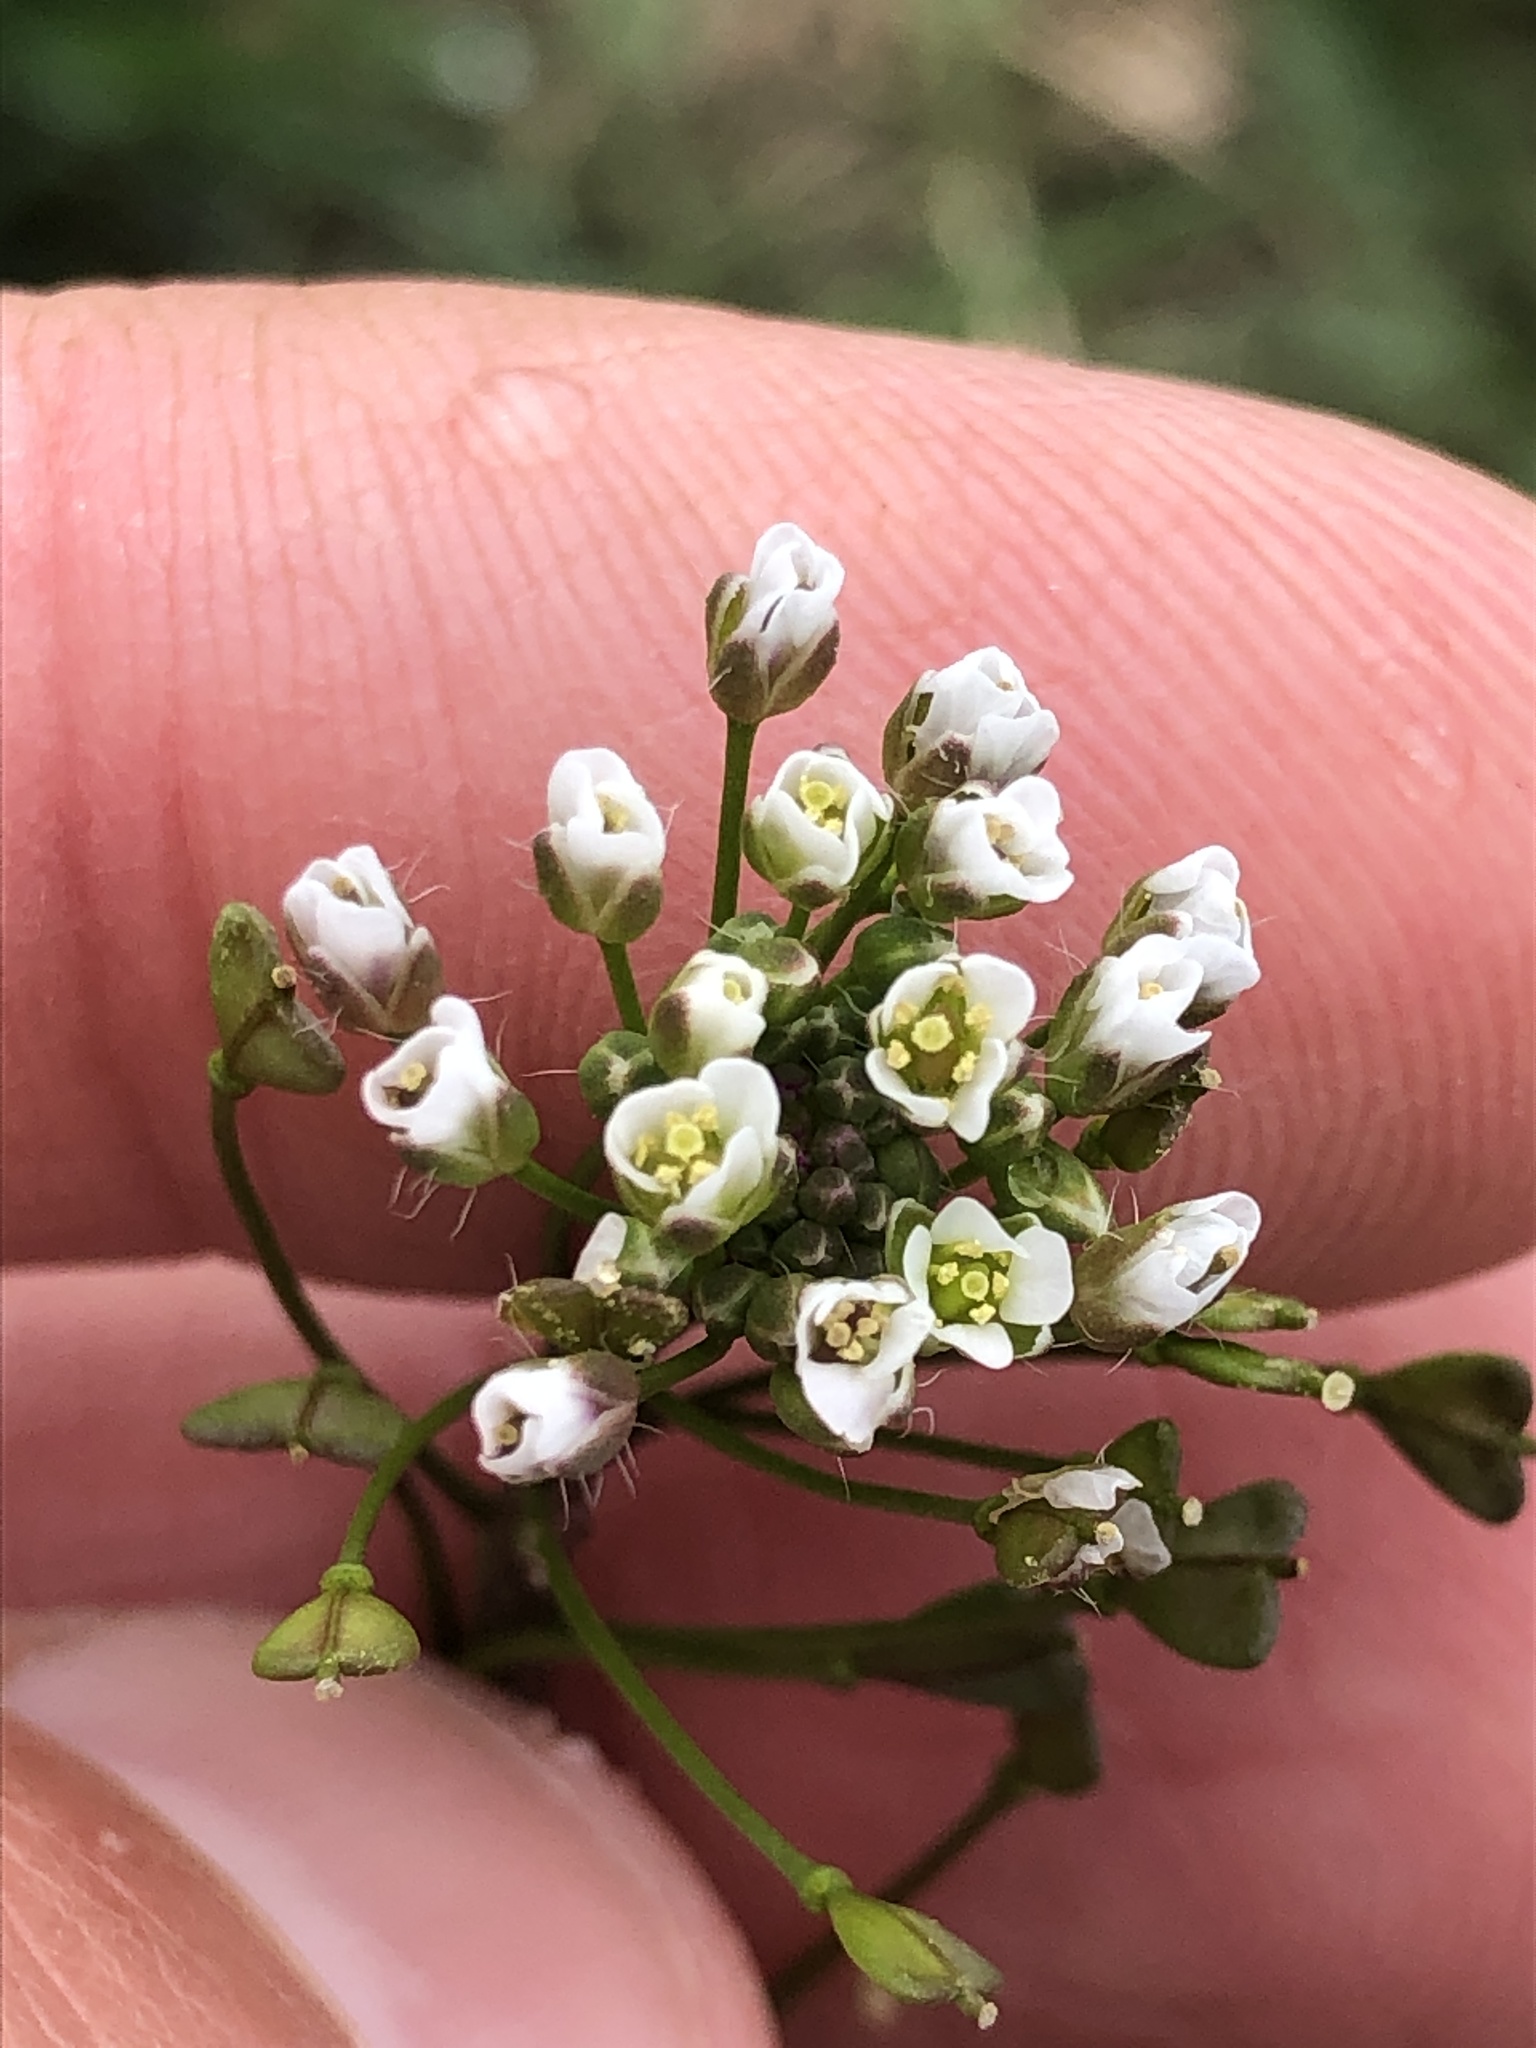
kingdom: Plantae
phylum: Tracheophyta
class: Magnoliopsida
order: Brassicales
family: Brassicaceae
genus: Capsella
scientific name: Capsella bursa-pastoris
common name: Shepherd's purse
